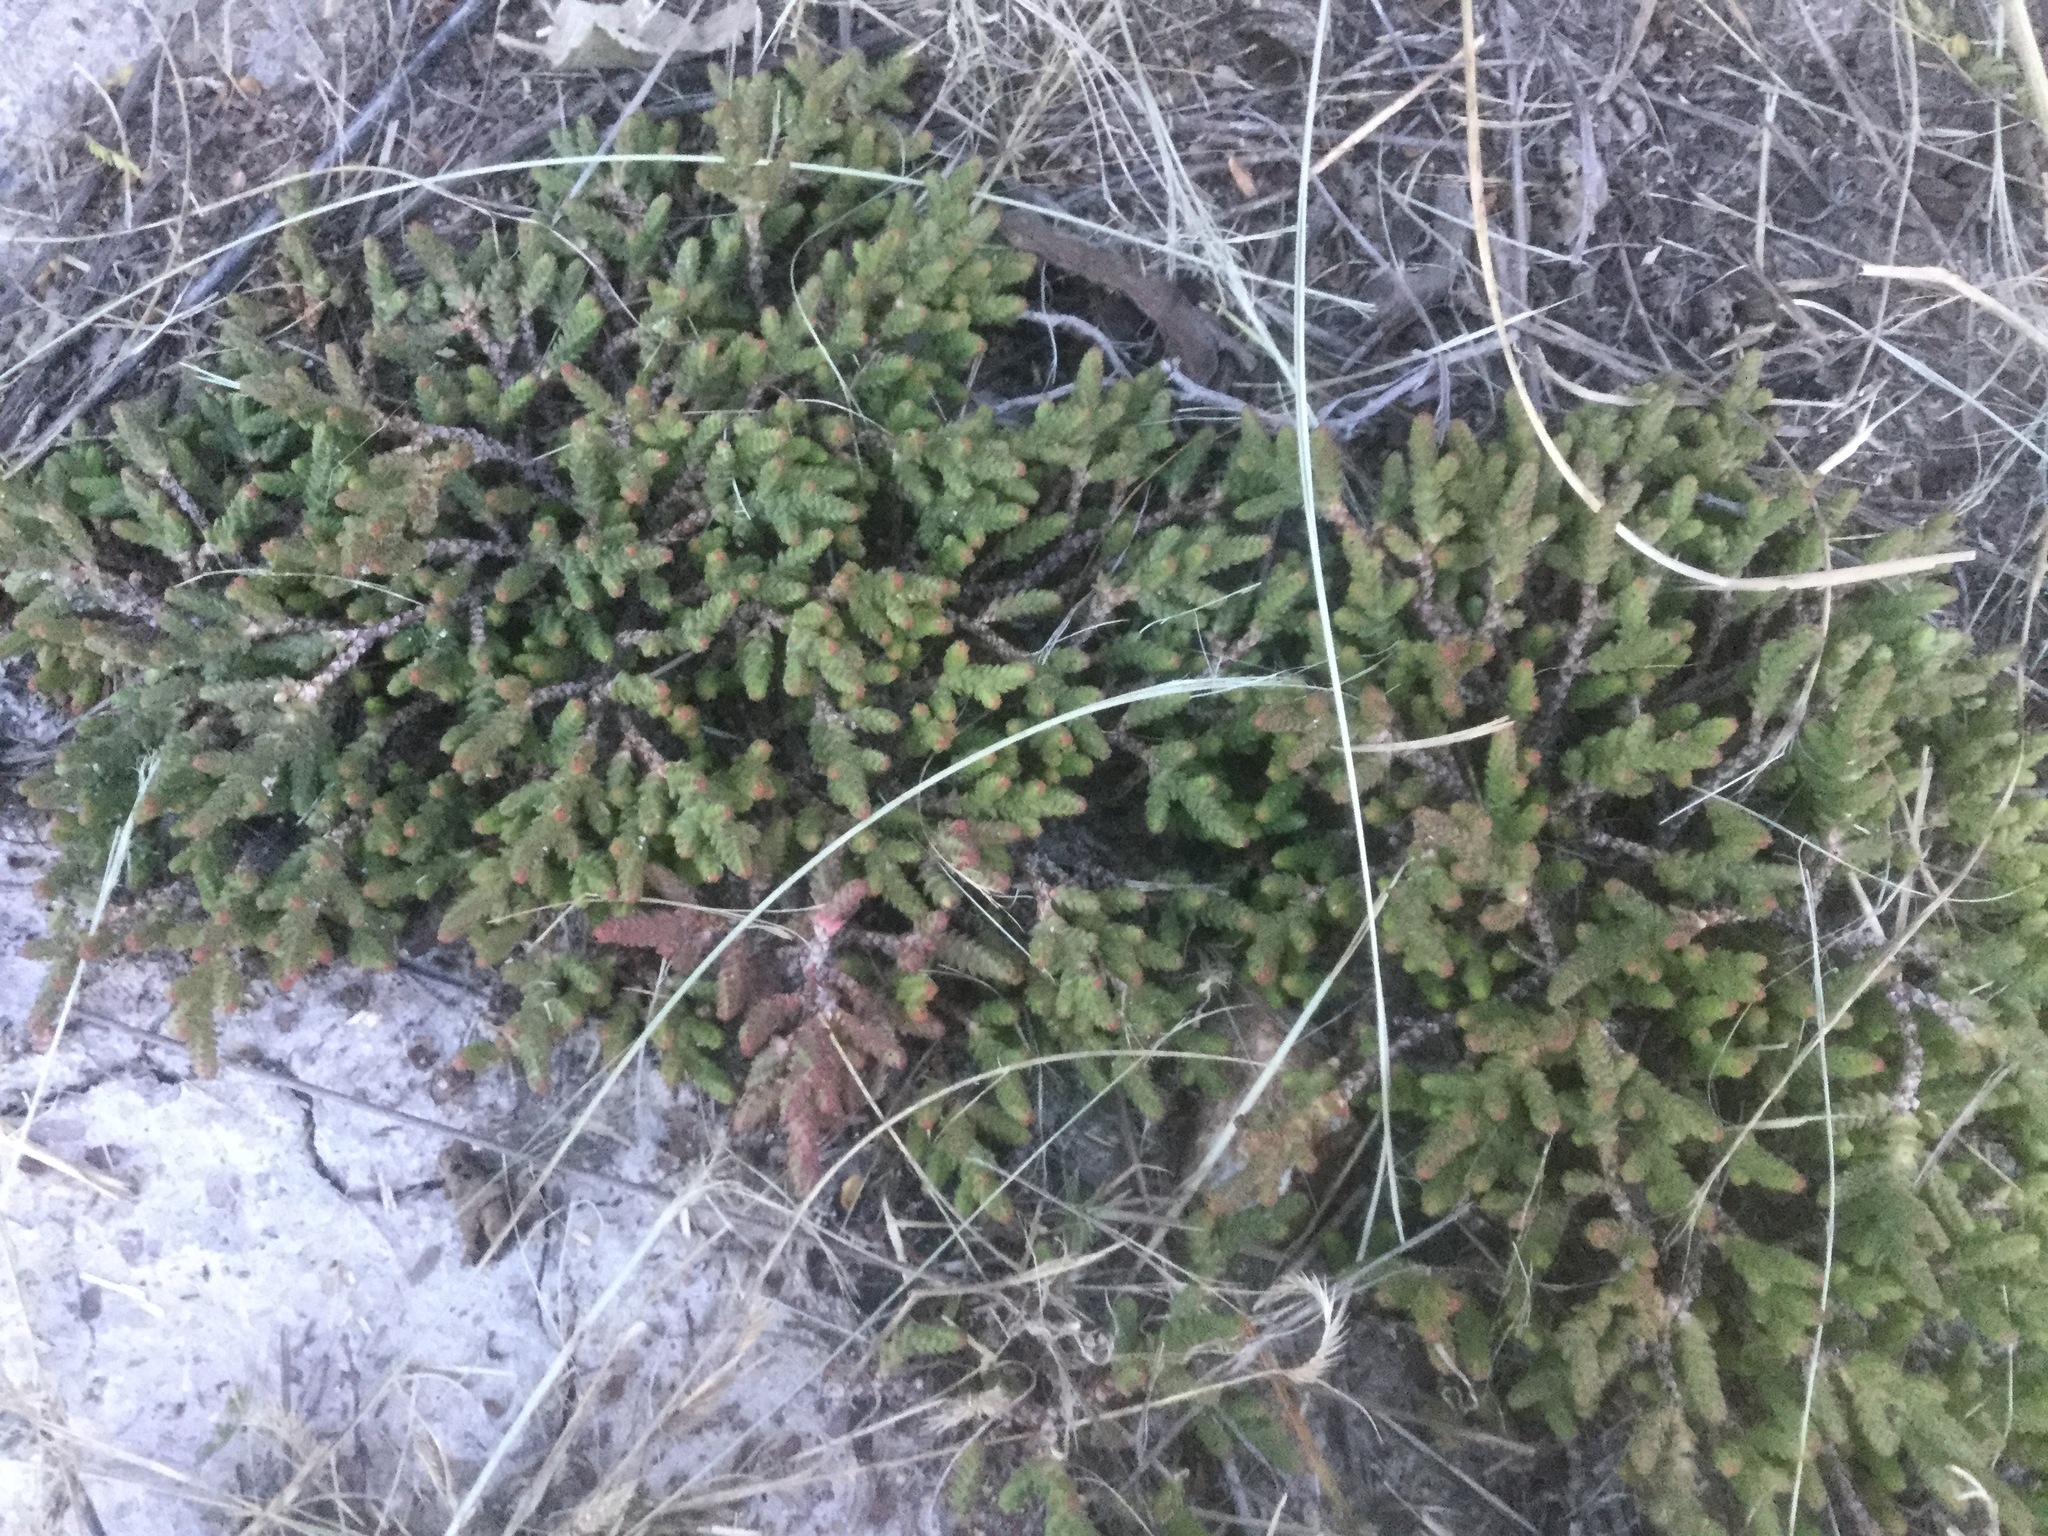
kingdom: Plantae
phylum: Tracheophyta
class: Magnoliopsida
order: Saxifragales
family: Crassulaceae
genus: Sedum
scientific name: Sedum moranense
